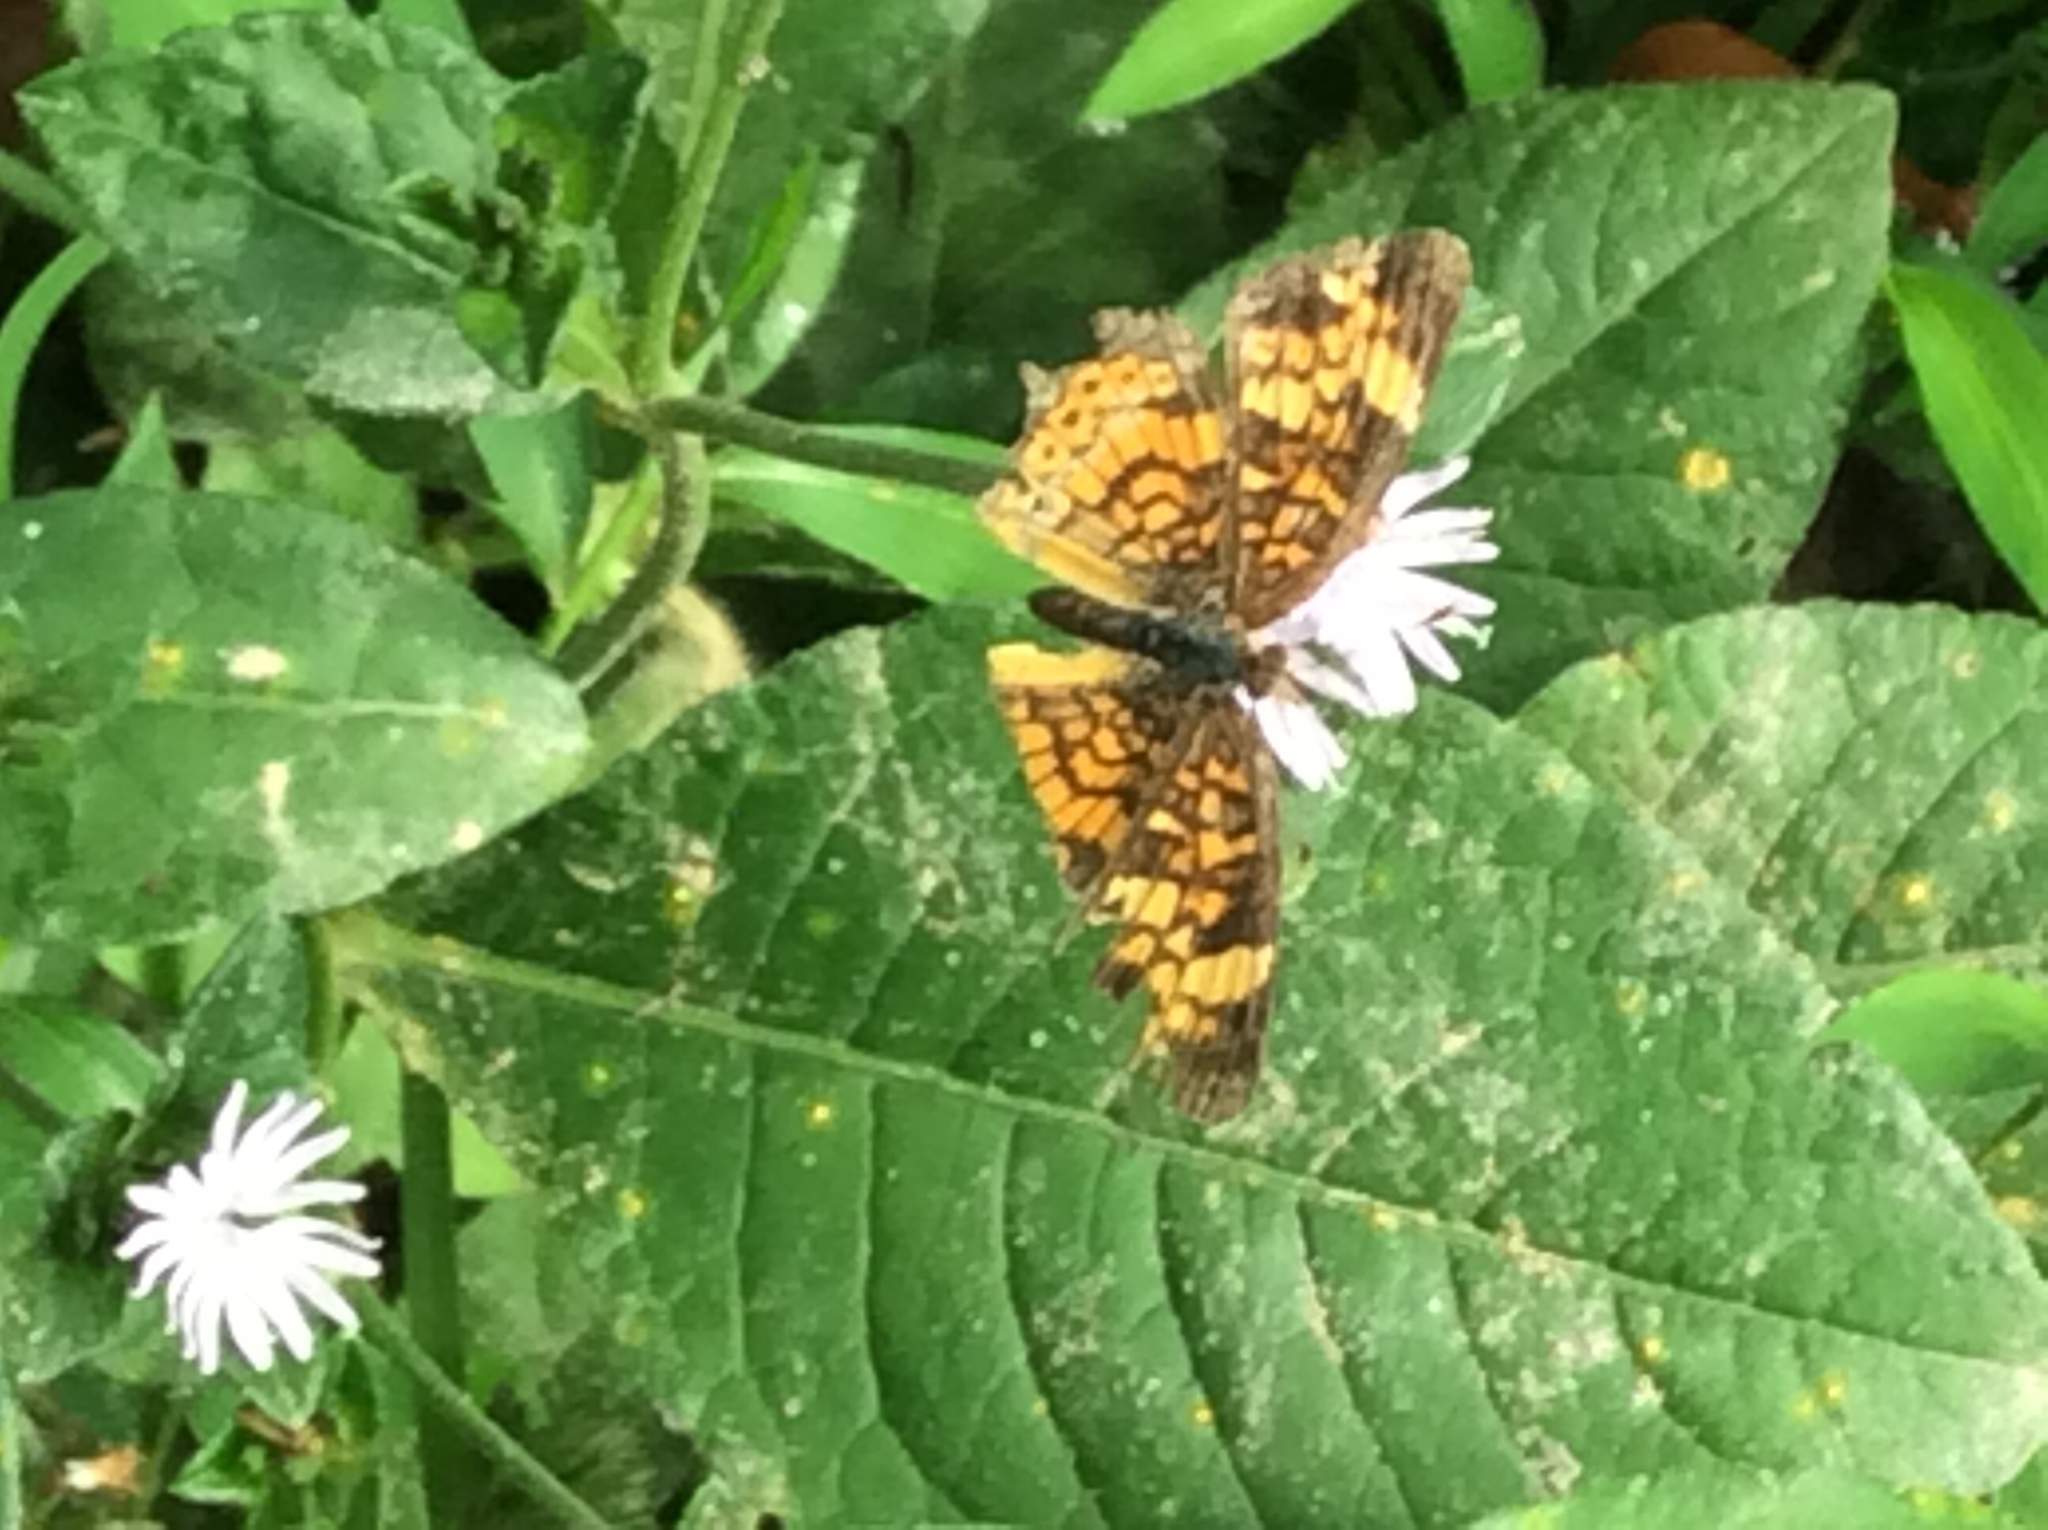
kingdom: Animalia
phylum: Arthropoda
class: Insecta
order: Lepidoptera
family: Nymphalidae
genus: Phyciodes
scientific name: Phyciodes tharos
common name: Pearl crescent
